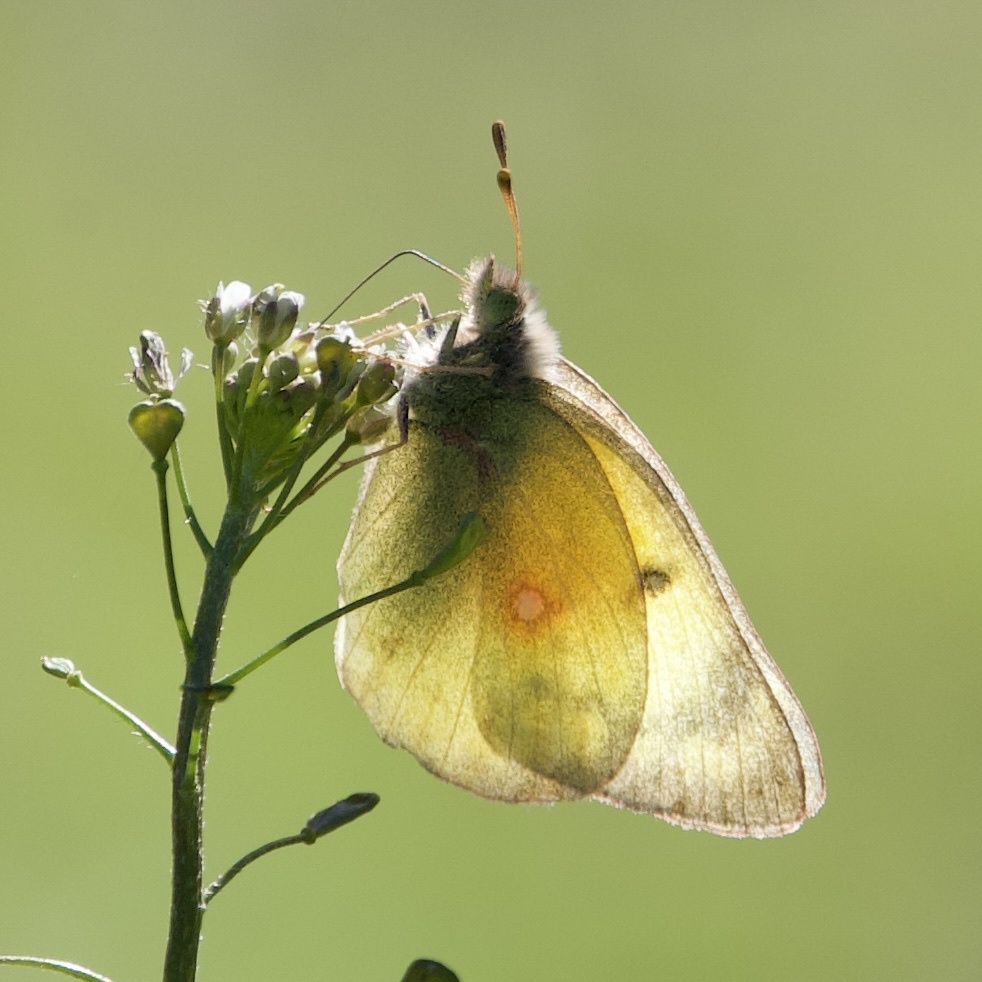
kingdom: Animalia
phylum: Arthropoda
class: Insecta
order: Lepidoptera
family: Pieridae
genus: Colias
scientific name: Colias eurytheme
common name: Alfalfa butterfly
